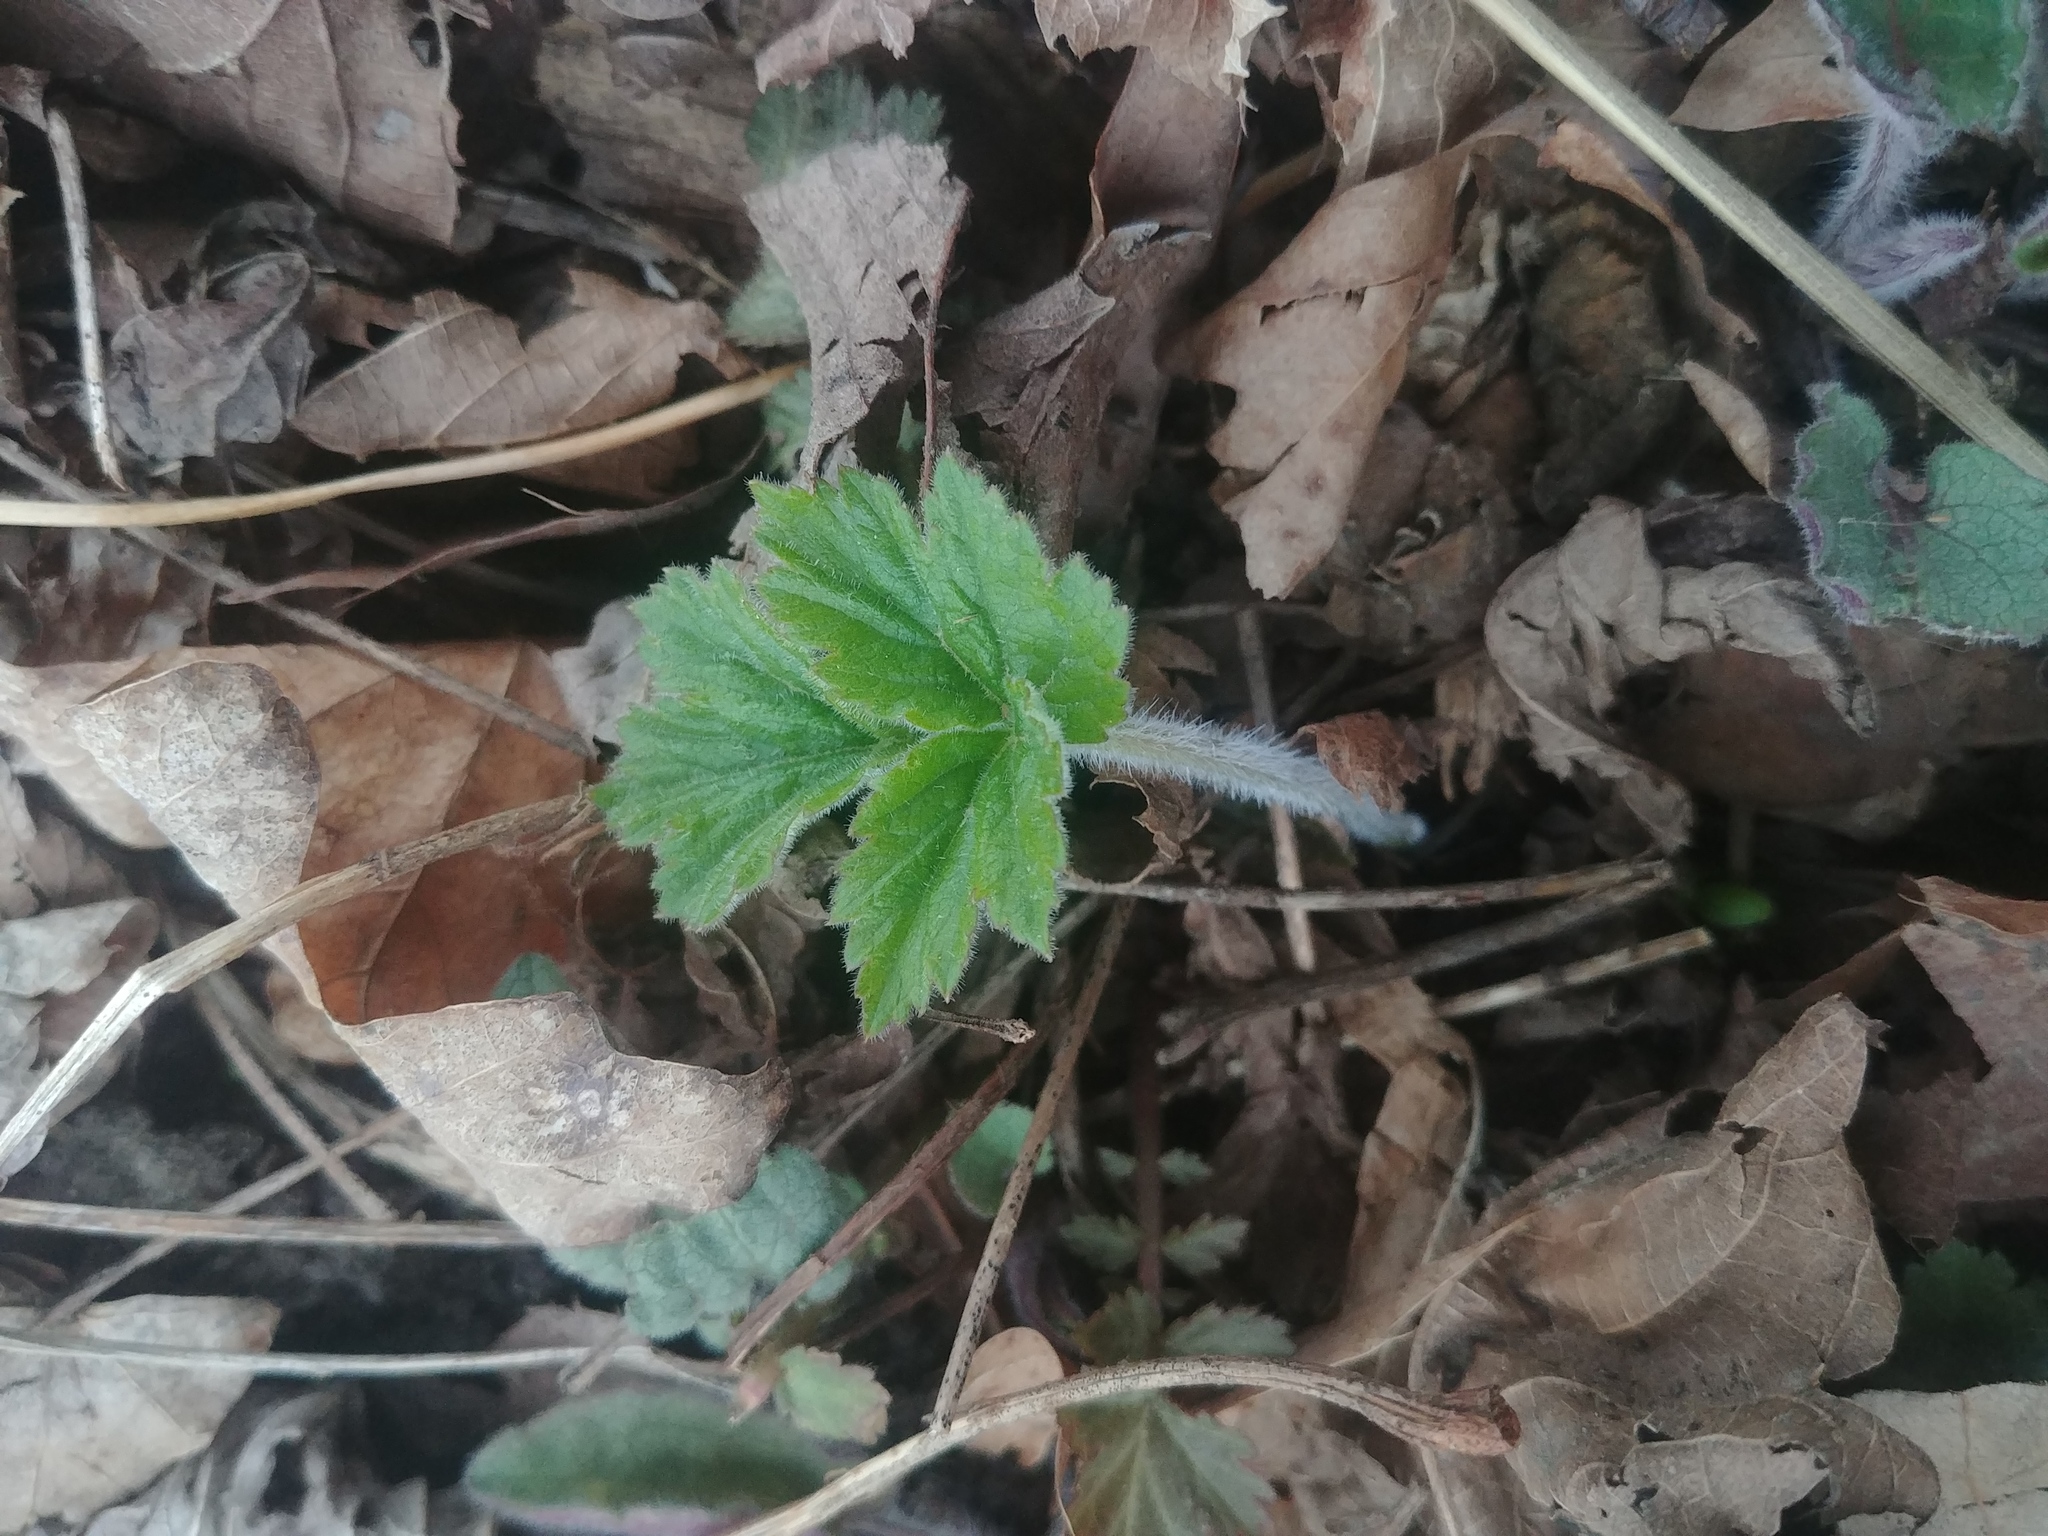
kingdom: Plantae
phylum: Tracheophyta
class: Magnoliopsida
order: Apiales
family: Apiaceae
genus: Heracleum
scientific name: Heracleum maximum
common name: American cow parsnip
